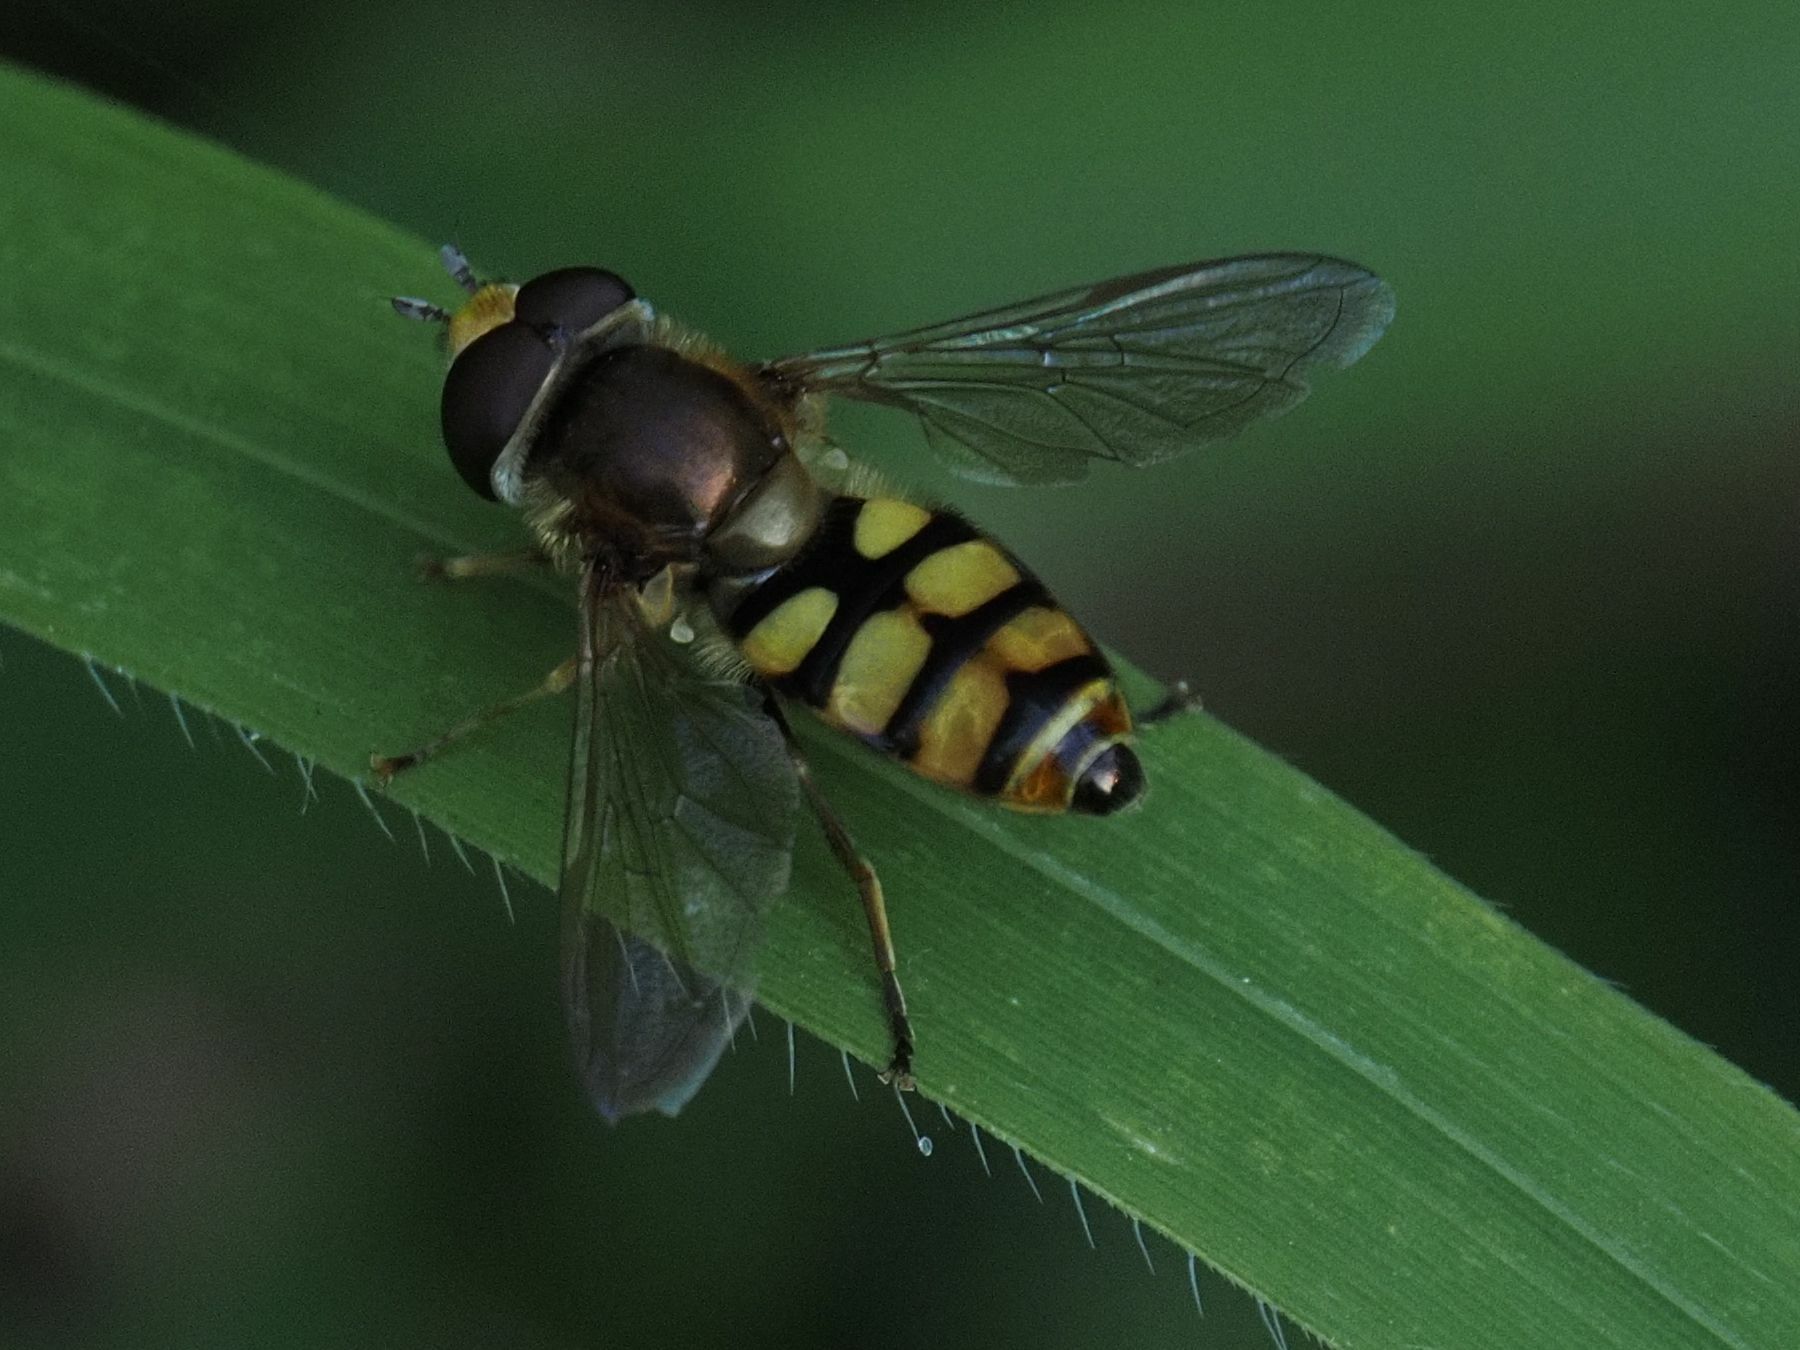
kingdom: Animalia
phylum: Arthropoda
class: Insecta
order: Diptera
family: Syrphidae
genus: Eupeodes
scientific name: Eupeodes corollae
